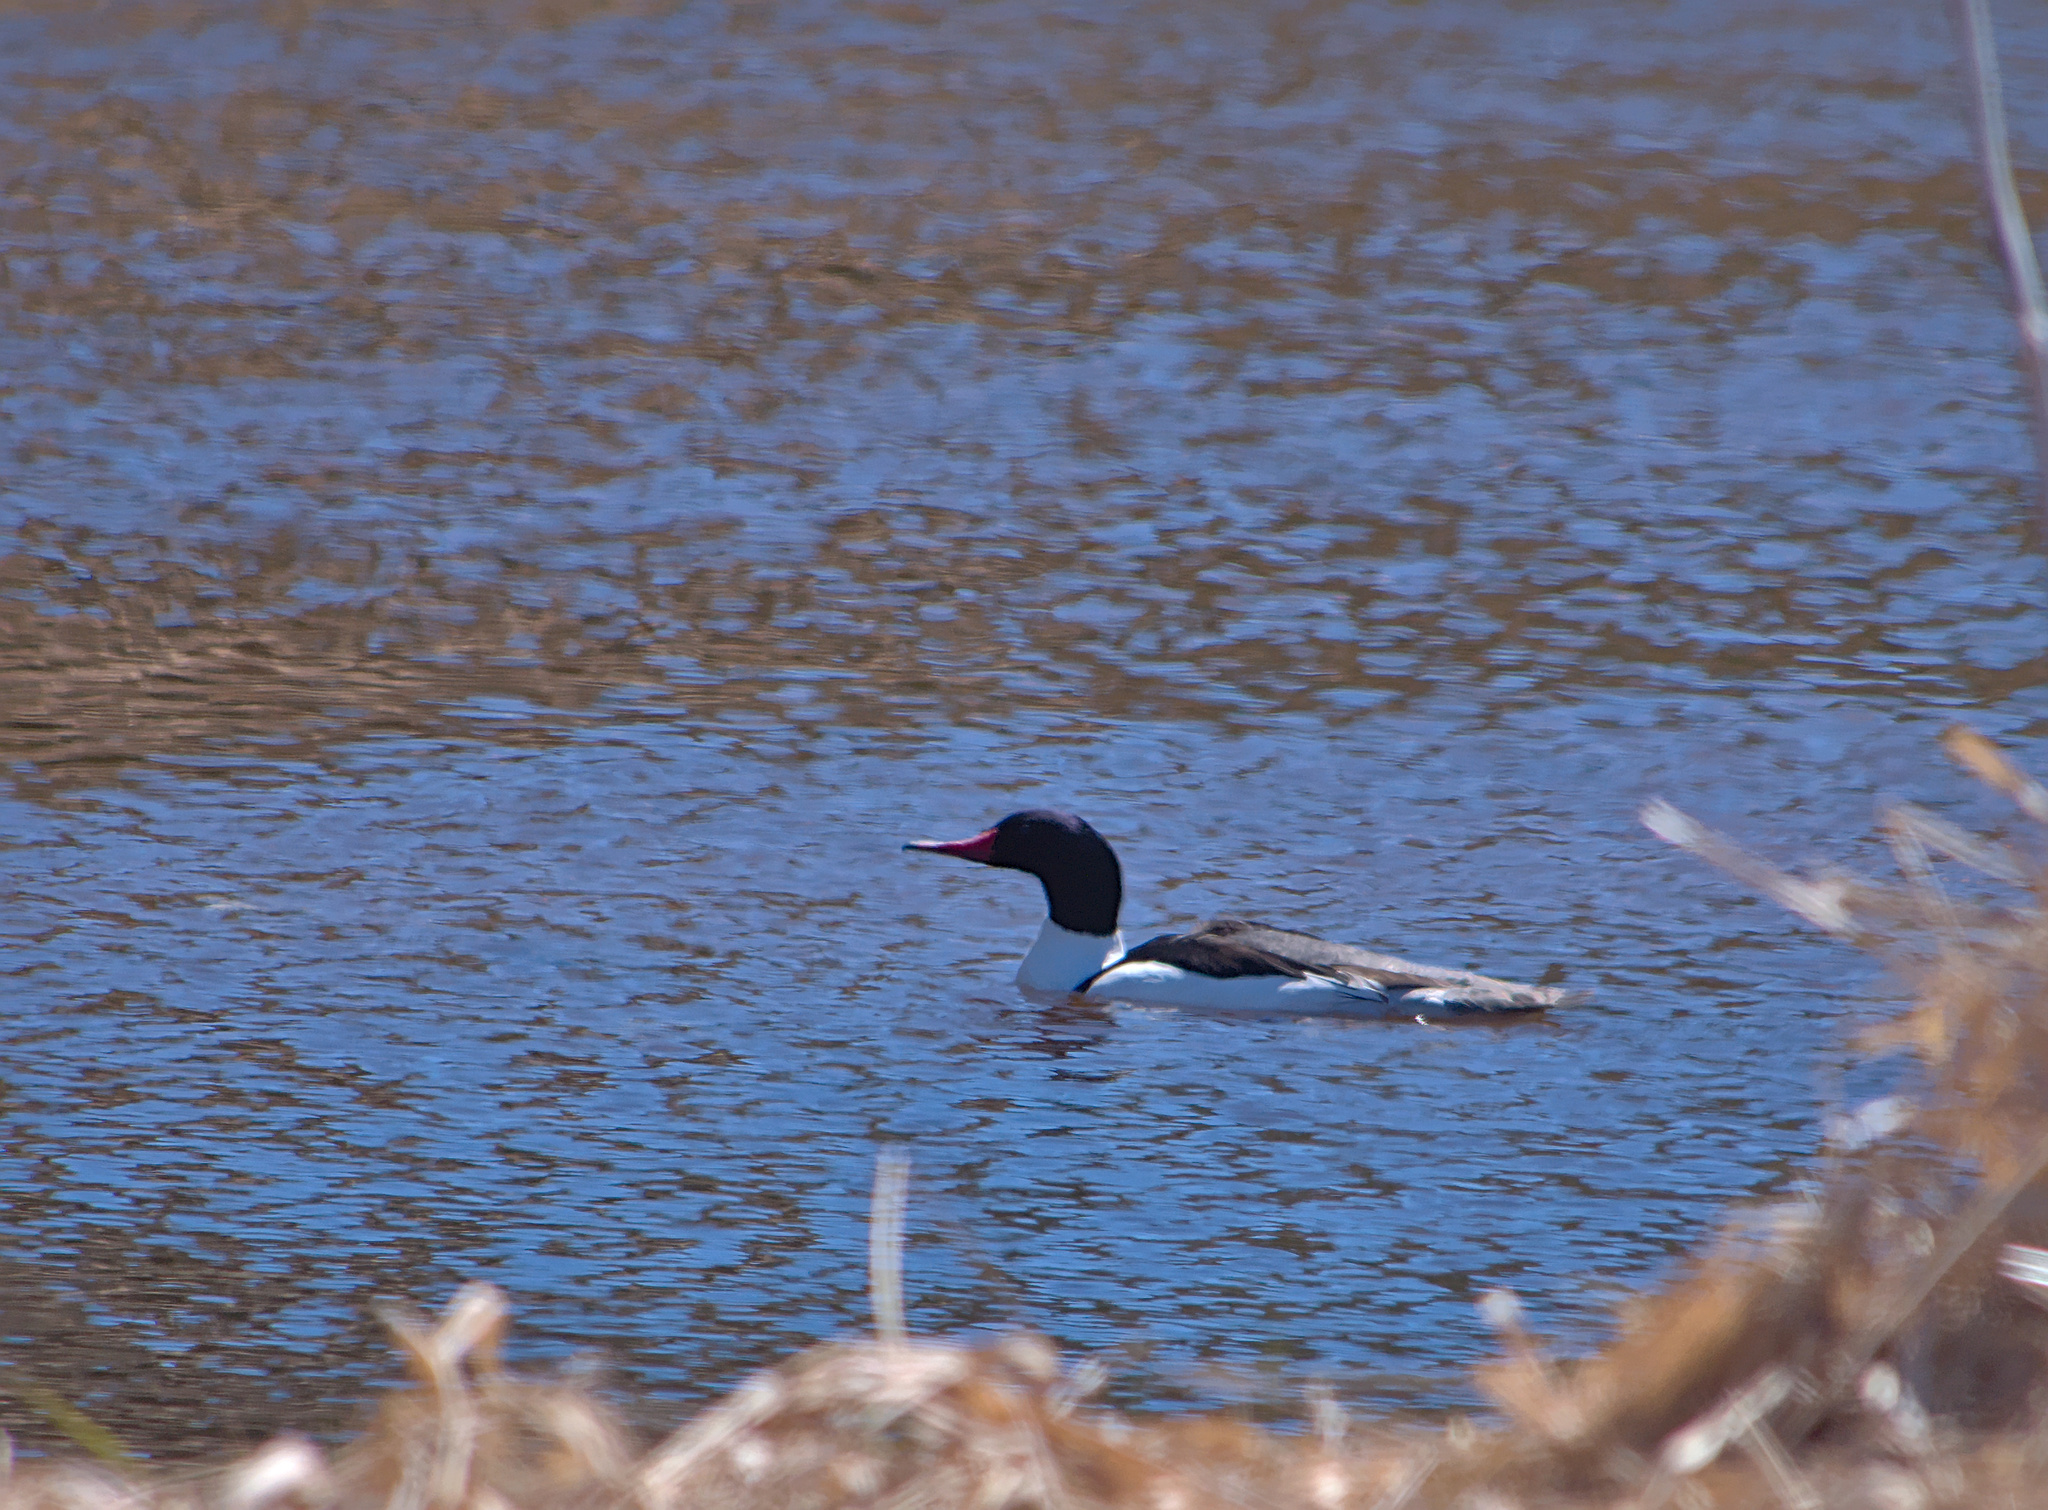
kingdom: Animalia
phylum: Chordata
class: Aves
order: Anseriformes
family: Anatidae
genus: Mergus
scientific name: Mergus merganser
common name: Common merganser
